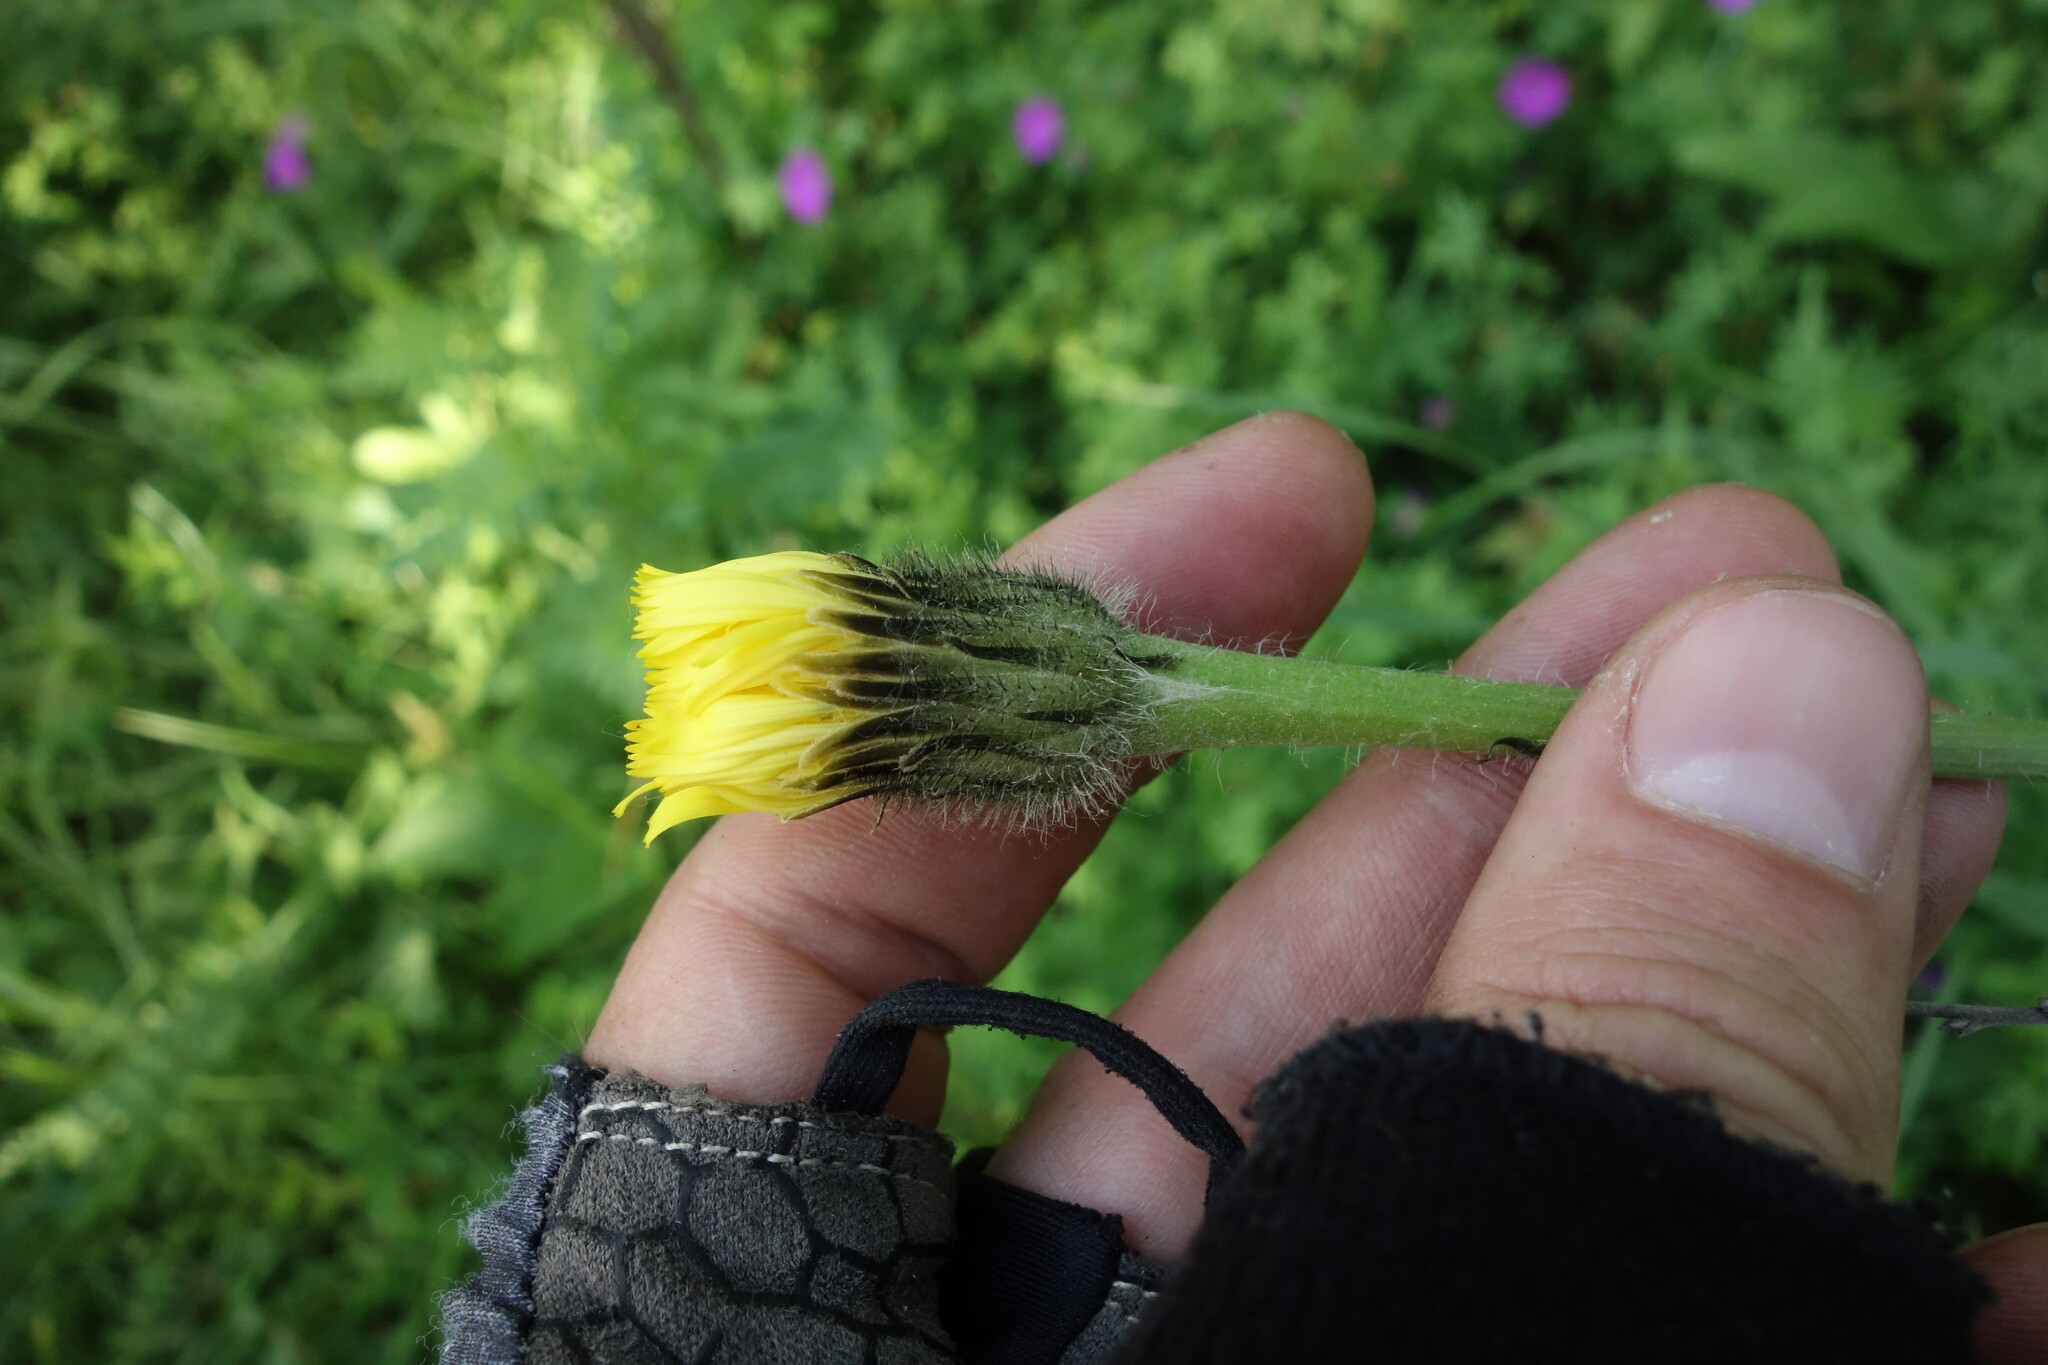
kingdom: Plantae
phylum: Tracheophyta
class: Magnoliopsida
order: Asterales
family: Asteraceae
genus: Trommsdorffia
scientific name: Trommsdorffia maculata
